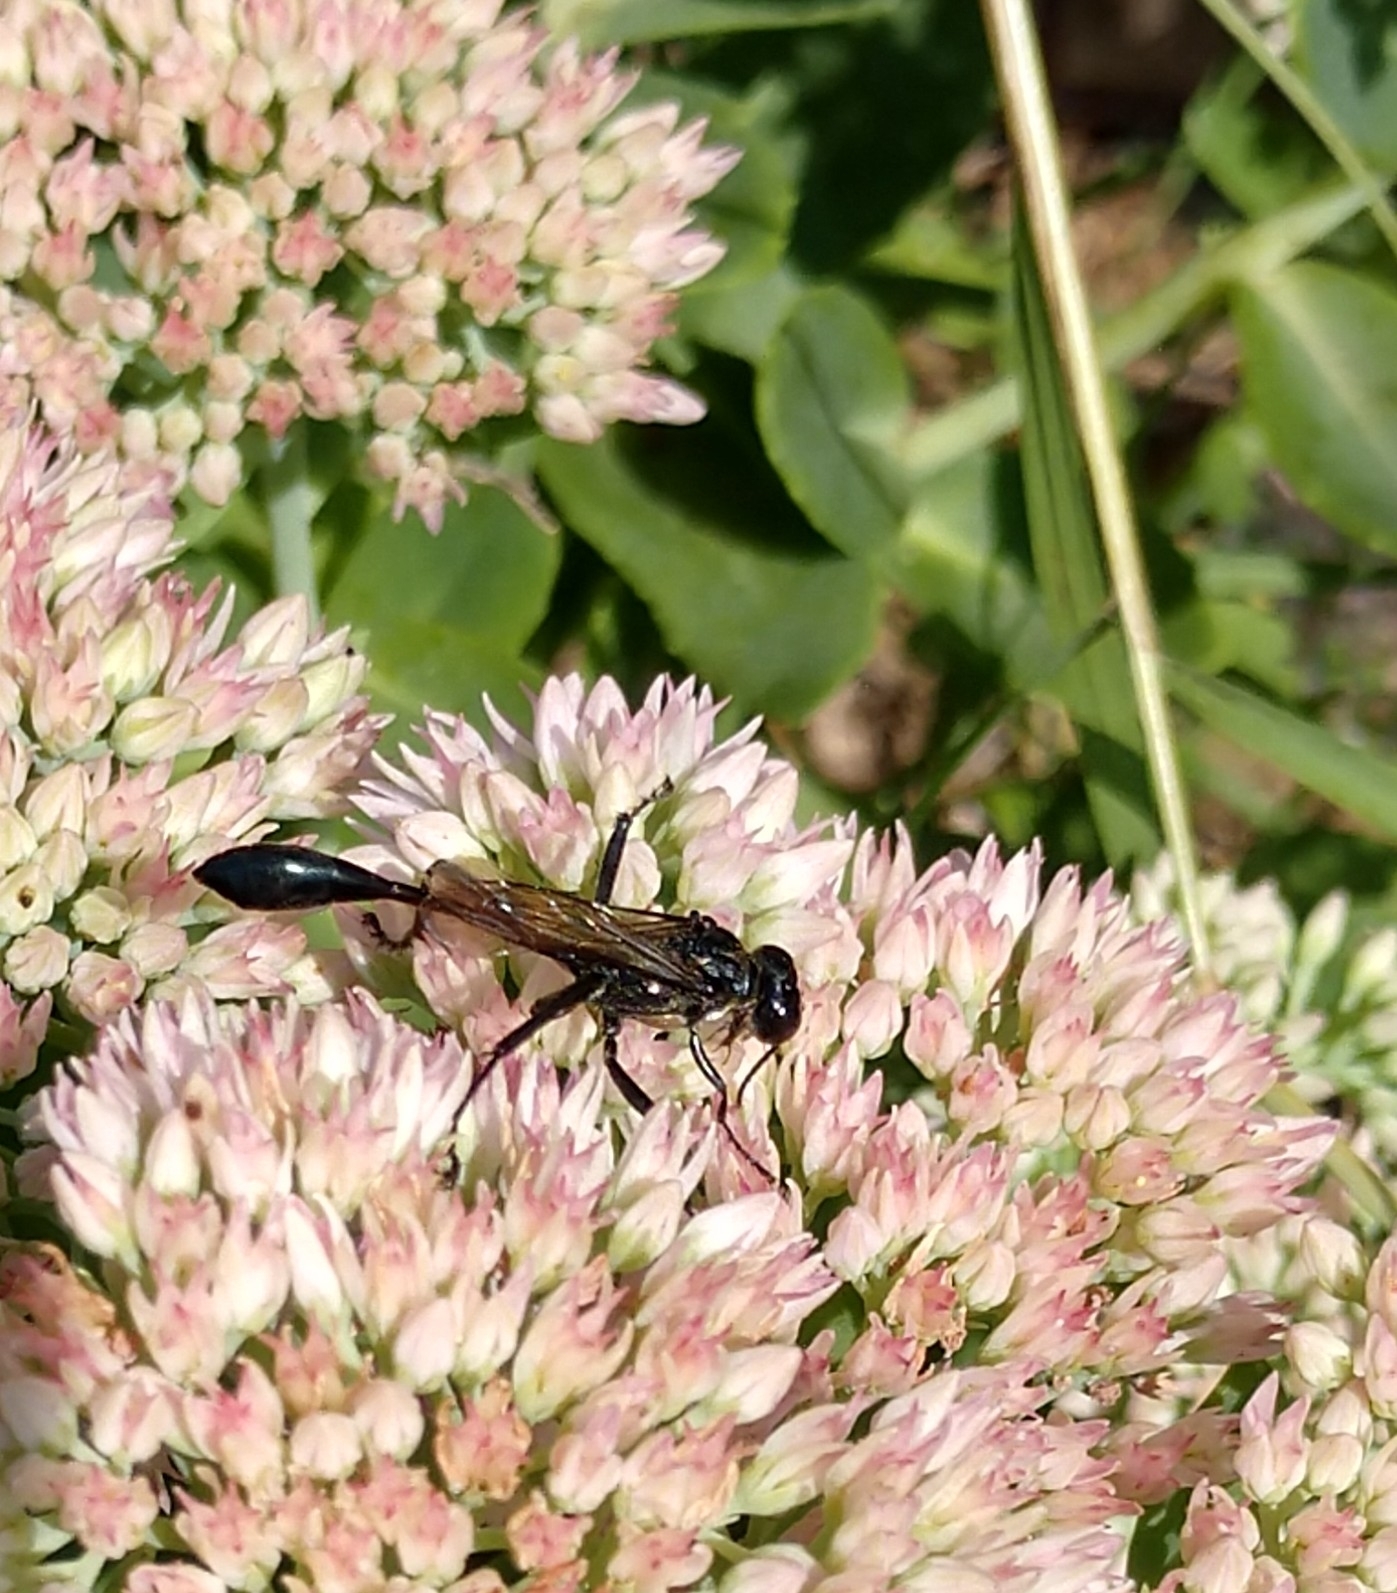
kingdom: Animalia
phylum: Arthropoda
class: Insecta
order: Hymenoptera
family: Sphecidae
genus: Eremnophila
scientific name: Eremnophila aureonotata
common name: Gold-marked thread-waisted wasp
